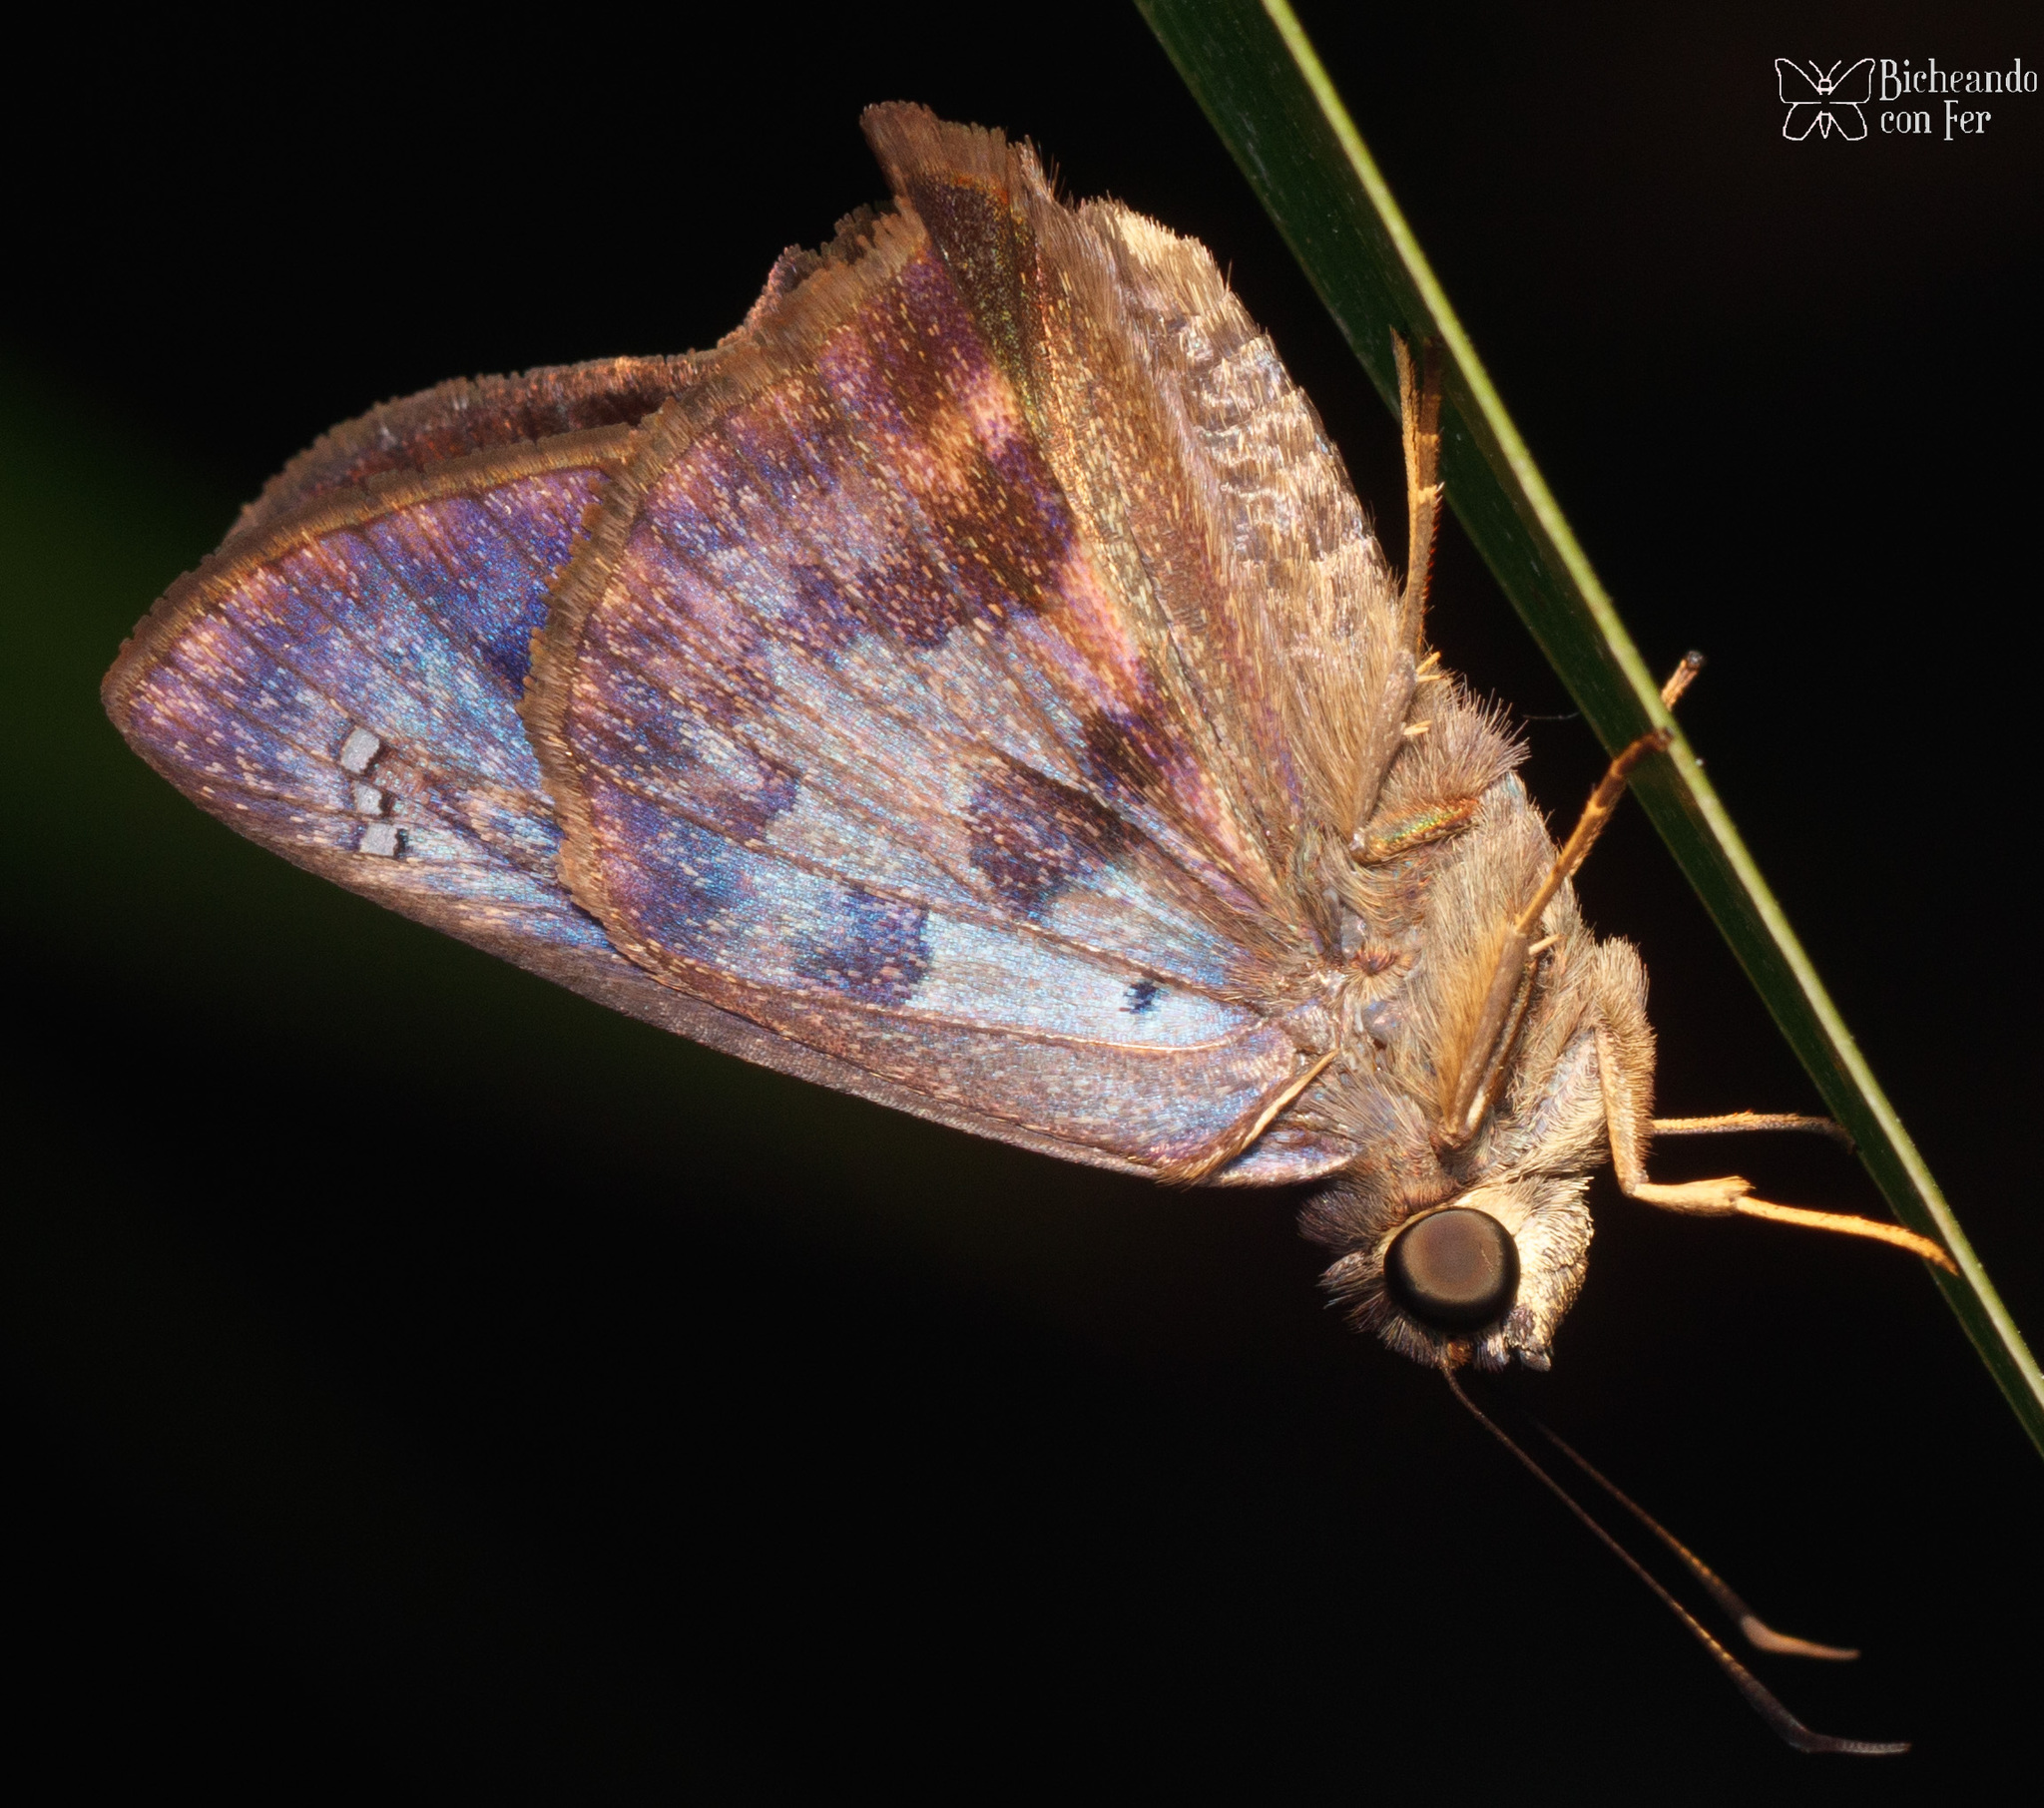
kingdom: Animalia
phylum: Arthropoda
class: Insecta
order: Lepidoptera
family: Hesperiidae
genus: Polygonus
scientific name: Polygonus leo
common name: Hammoch skipper
